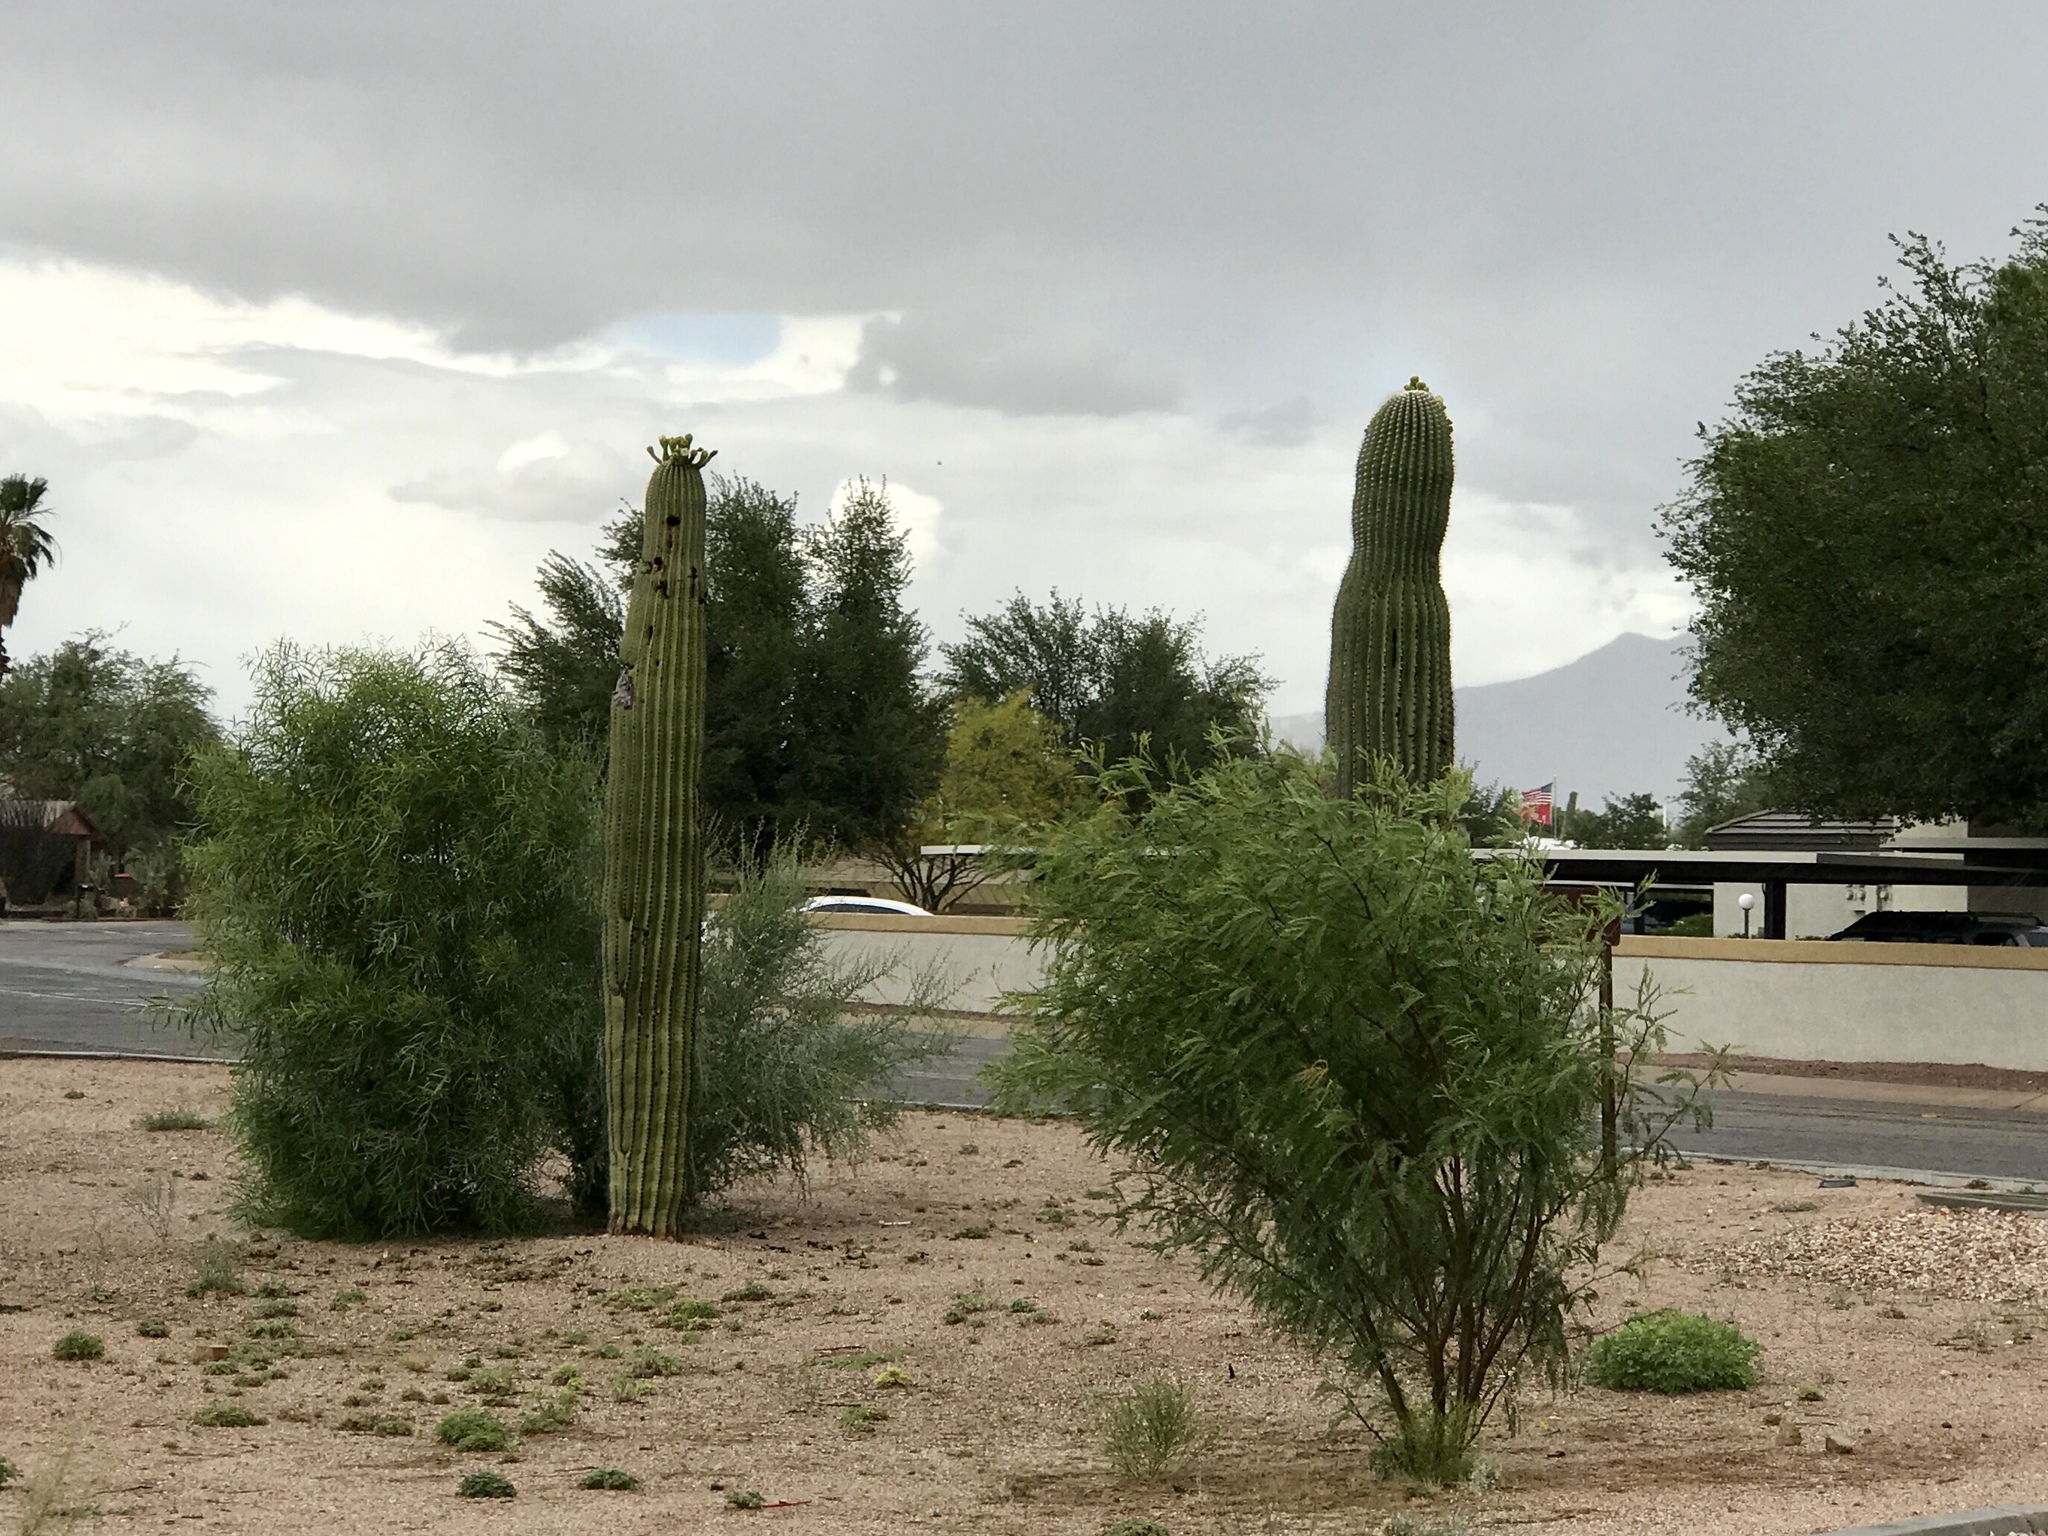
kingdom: Plantae
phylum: Tracheophyta
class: Magnoliopsida
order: Caryophyllales
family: Cactaceae
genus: Carnegiea
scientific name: Carnegiea gigantea
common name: Saguaro
